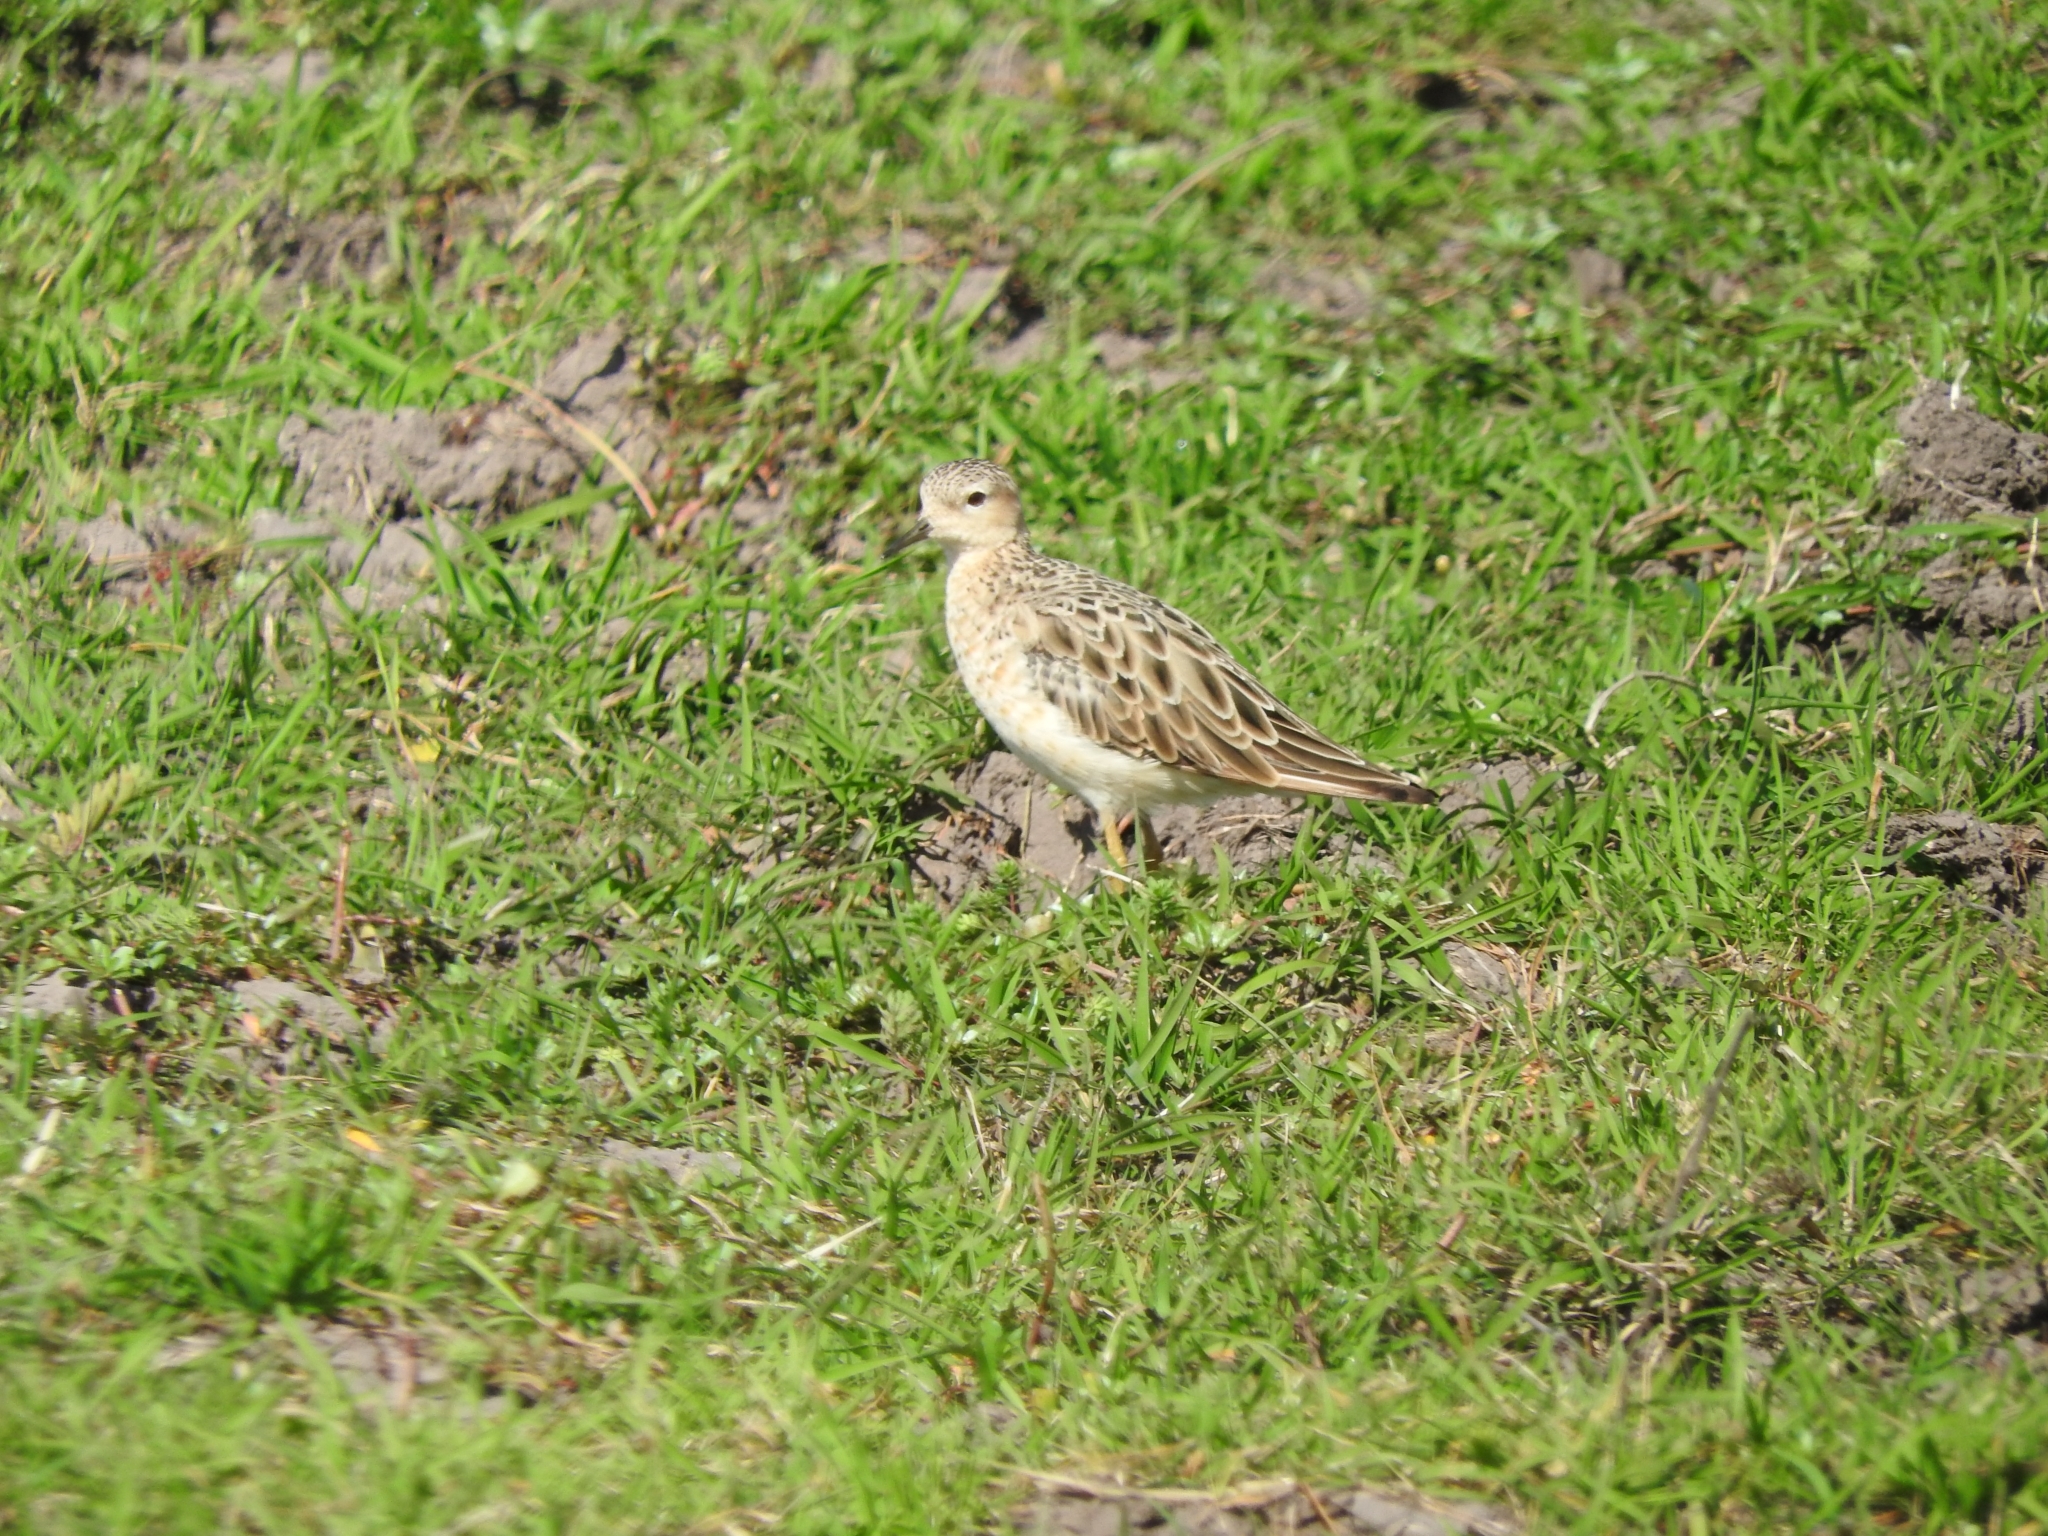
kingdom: Animalia
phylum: Chordata
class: Aves
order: Charadriiformes
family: Scolopacidae
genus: Calidris
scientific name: Calidris subruficollis
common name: Buff-breasted sandpiper
